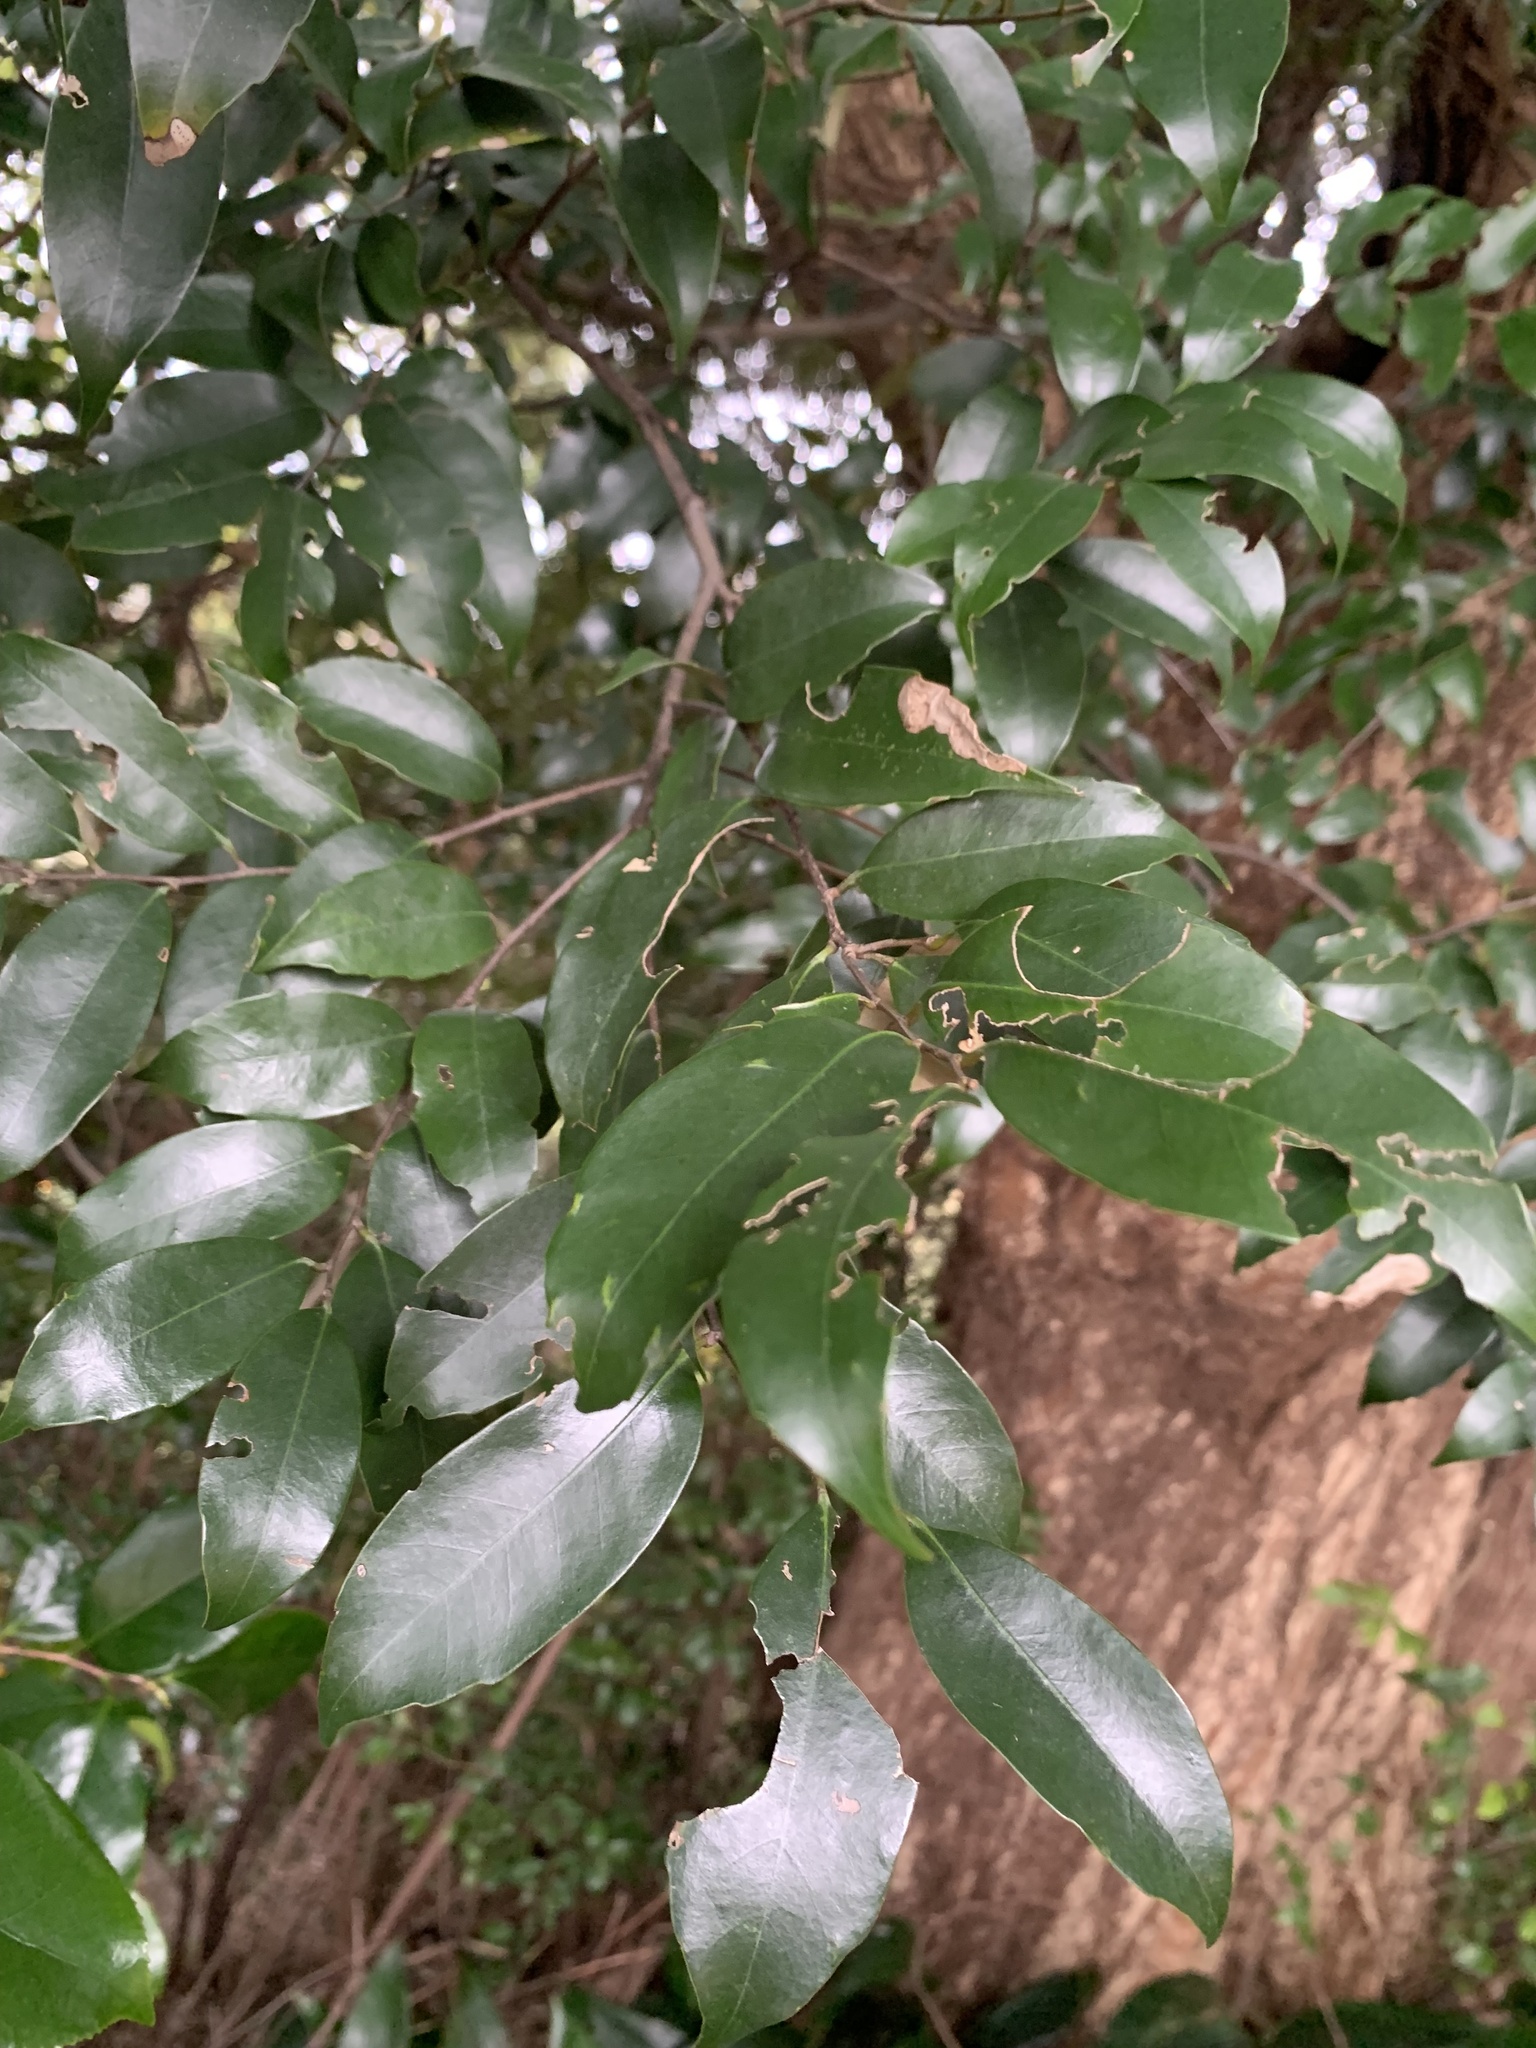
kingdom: Plantae
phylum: Tracheophyta
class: Magnoliopsida
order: Fagales
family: Fagaceae
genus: Castanopsis
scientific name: Castanopsis sieboldii
